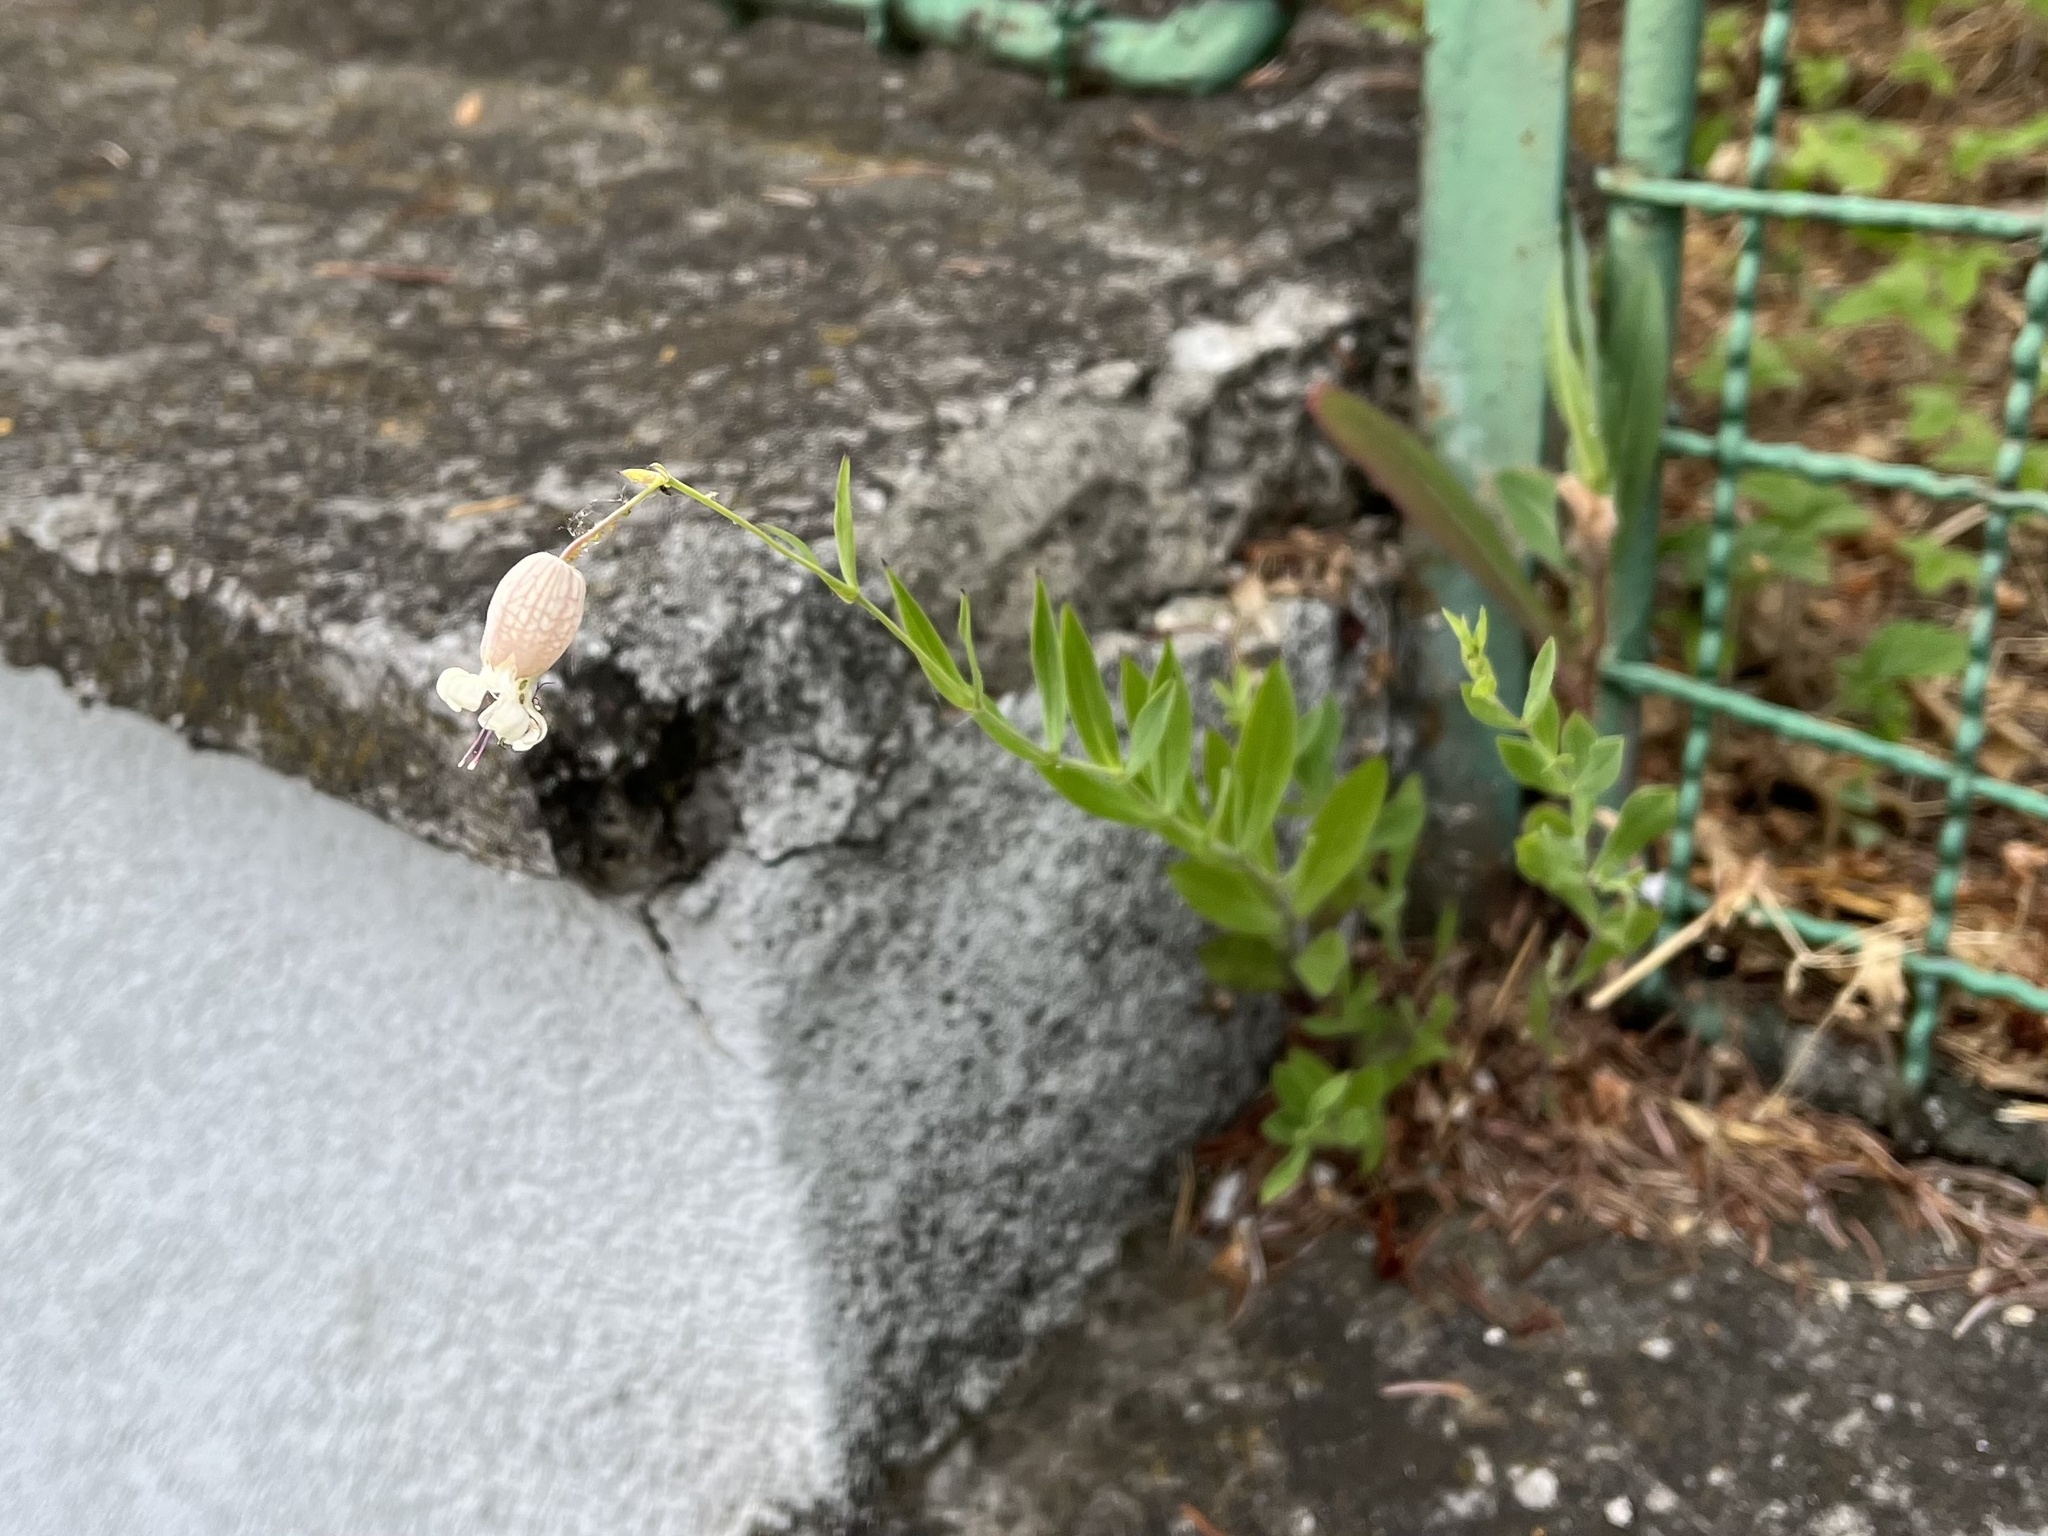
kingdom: Plantae
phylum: Tracheophyta
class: Magnoliopsida
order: Caryophyllales
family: Caryophyllaceae
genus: Silene
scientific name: Silene vulgaris
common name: Bladder campion
